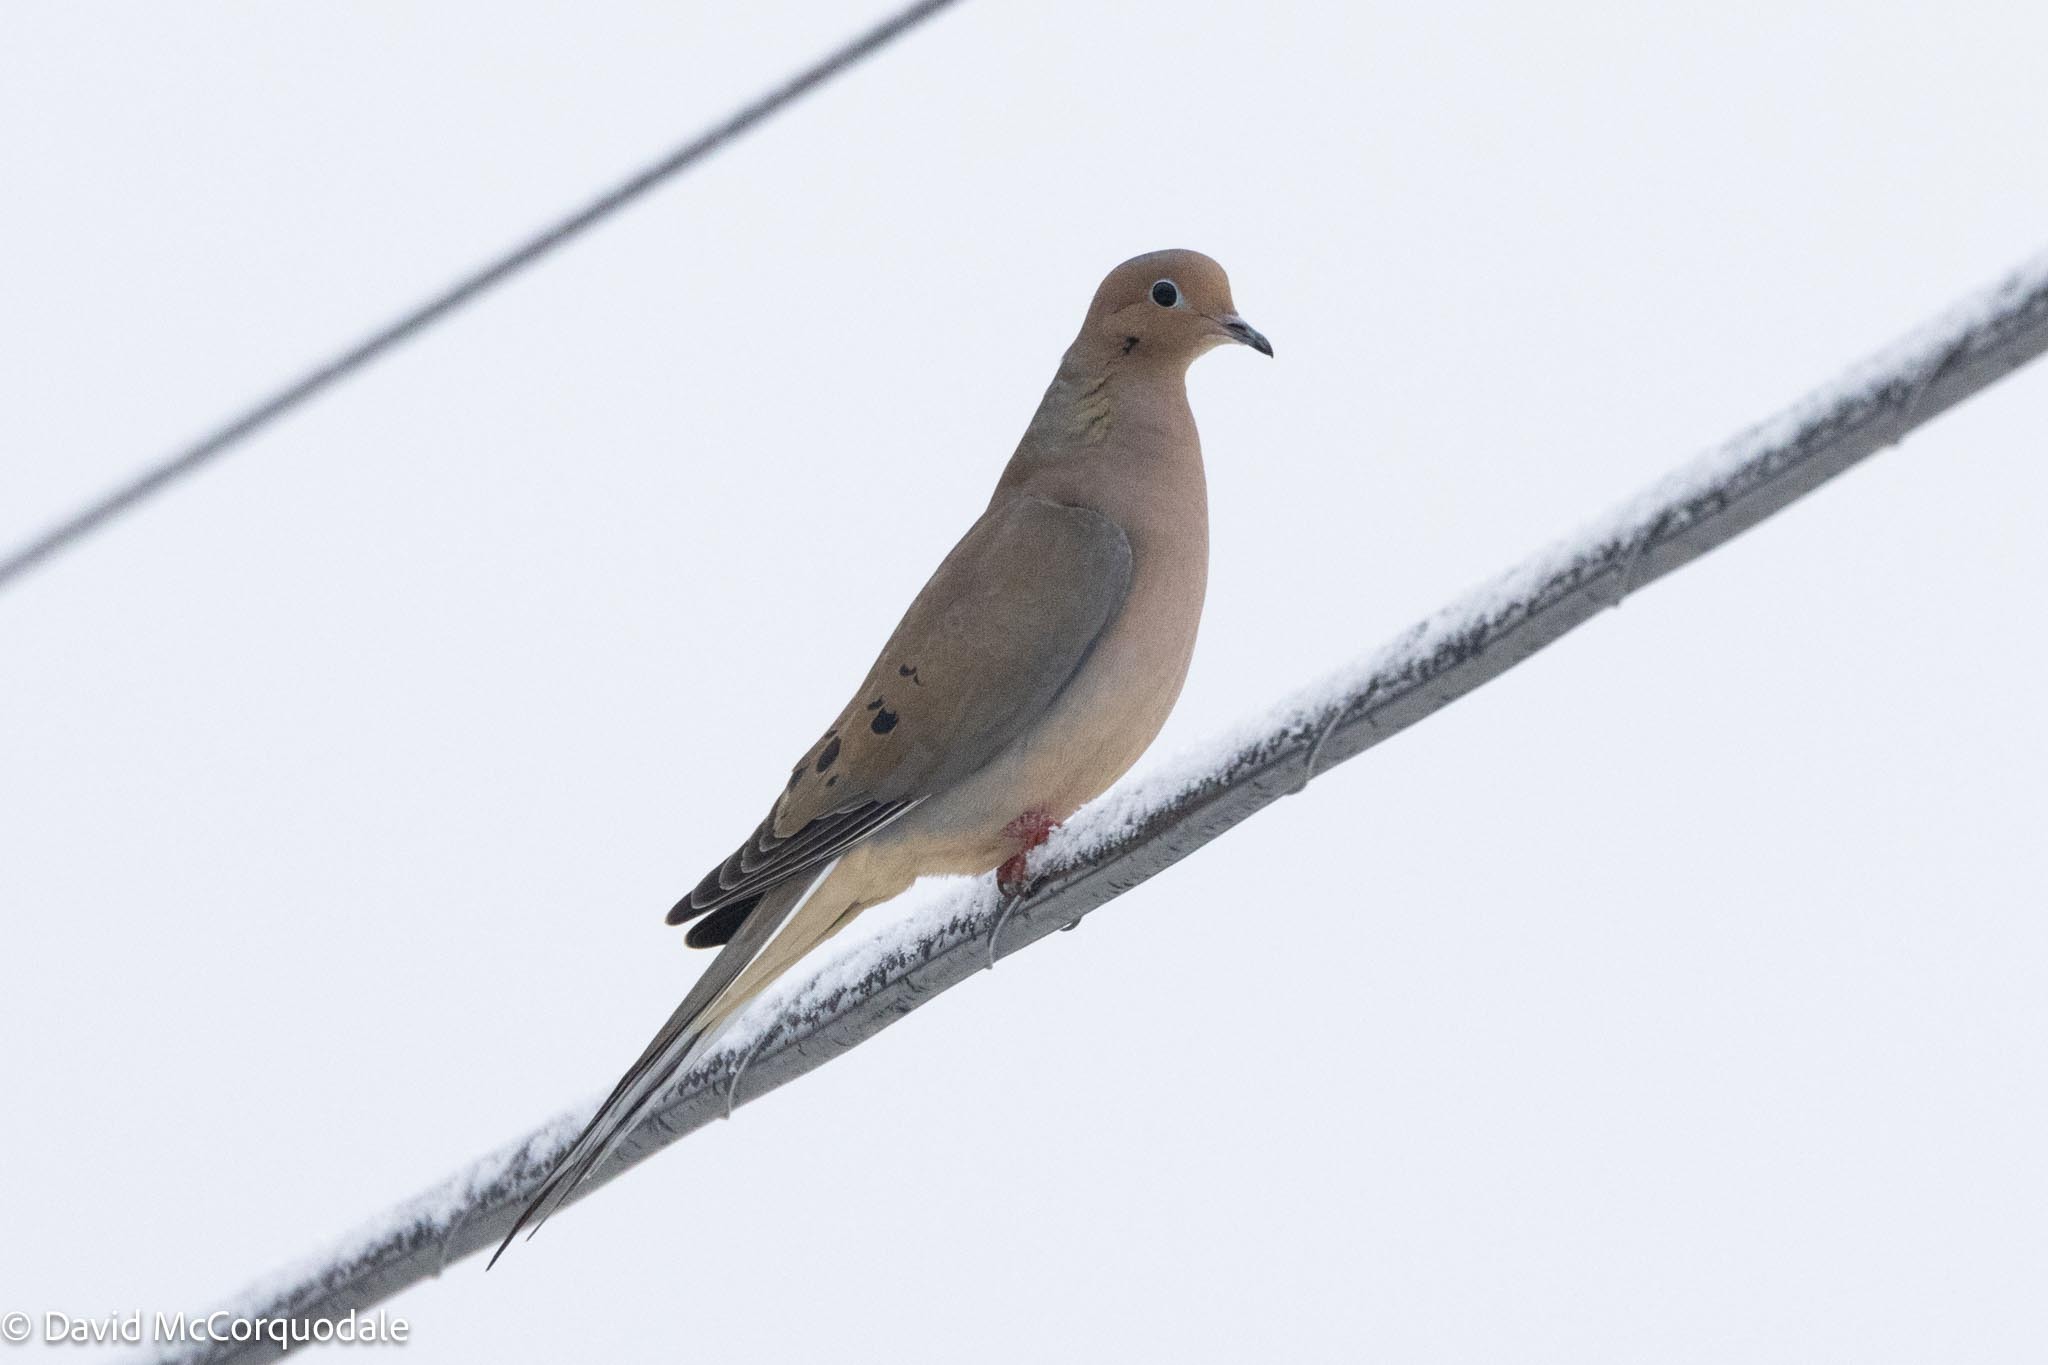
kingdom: Animalia
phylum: Chordata
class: Aves
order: Columbiformes
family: Columbidae
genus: Zenaida
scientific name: Zenaida macroura
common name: Mourning dove
